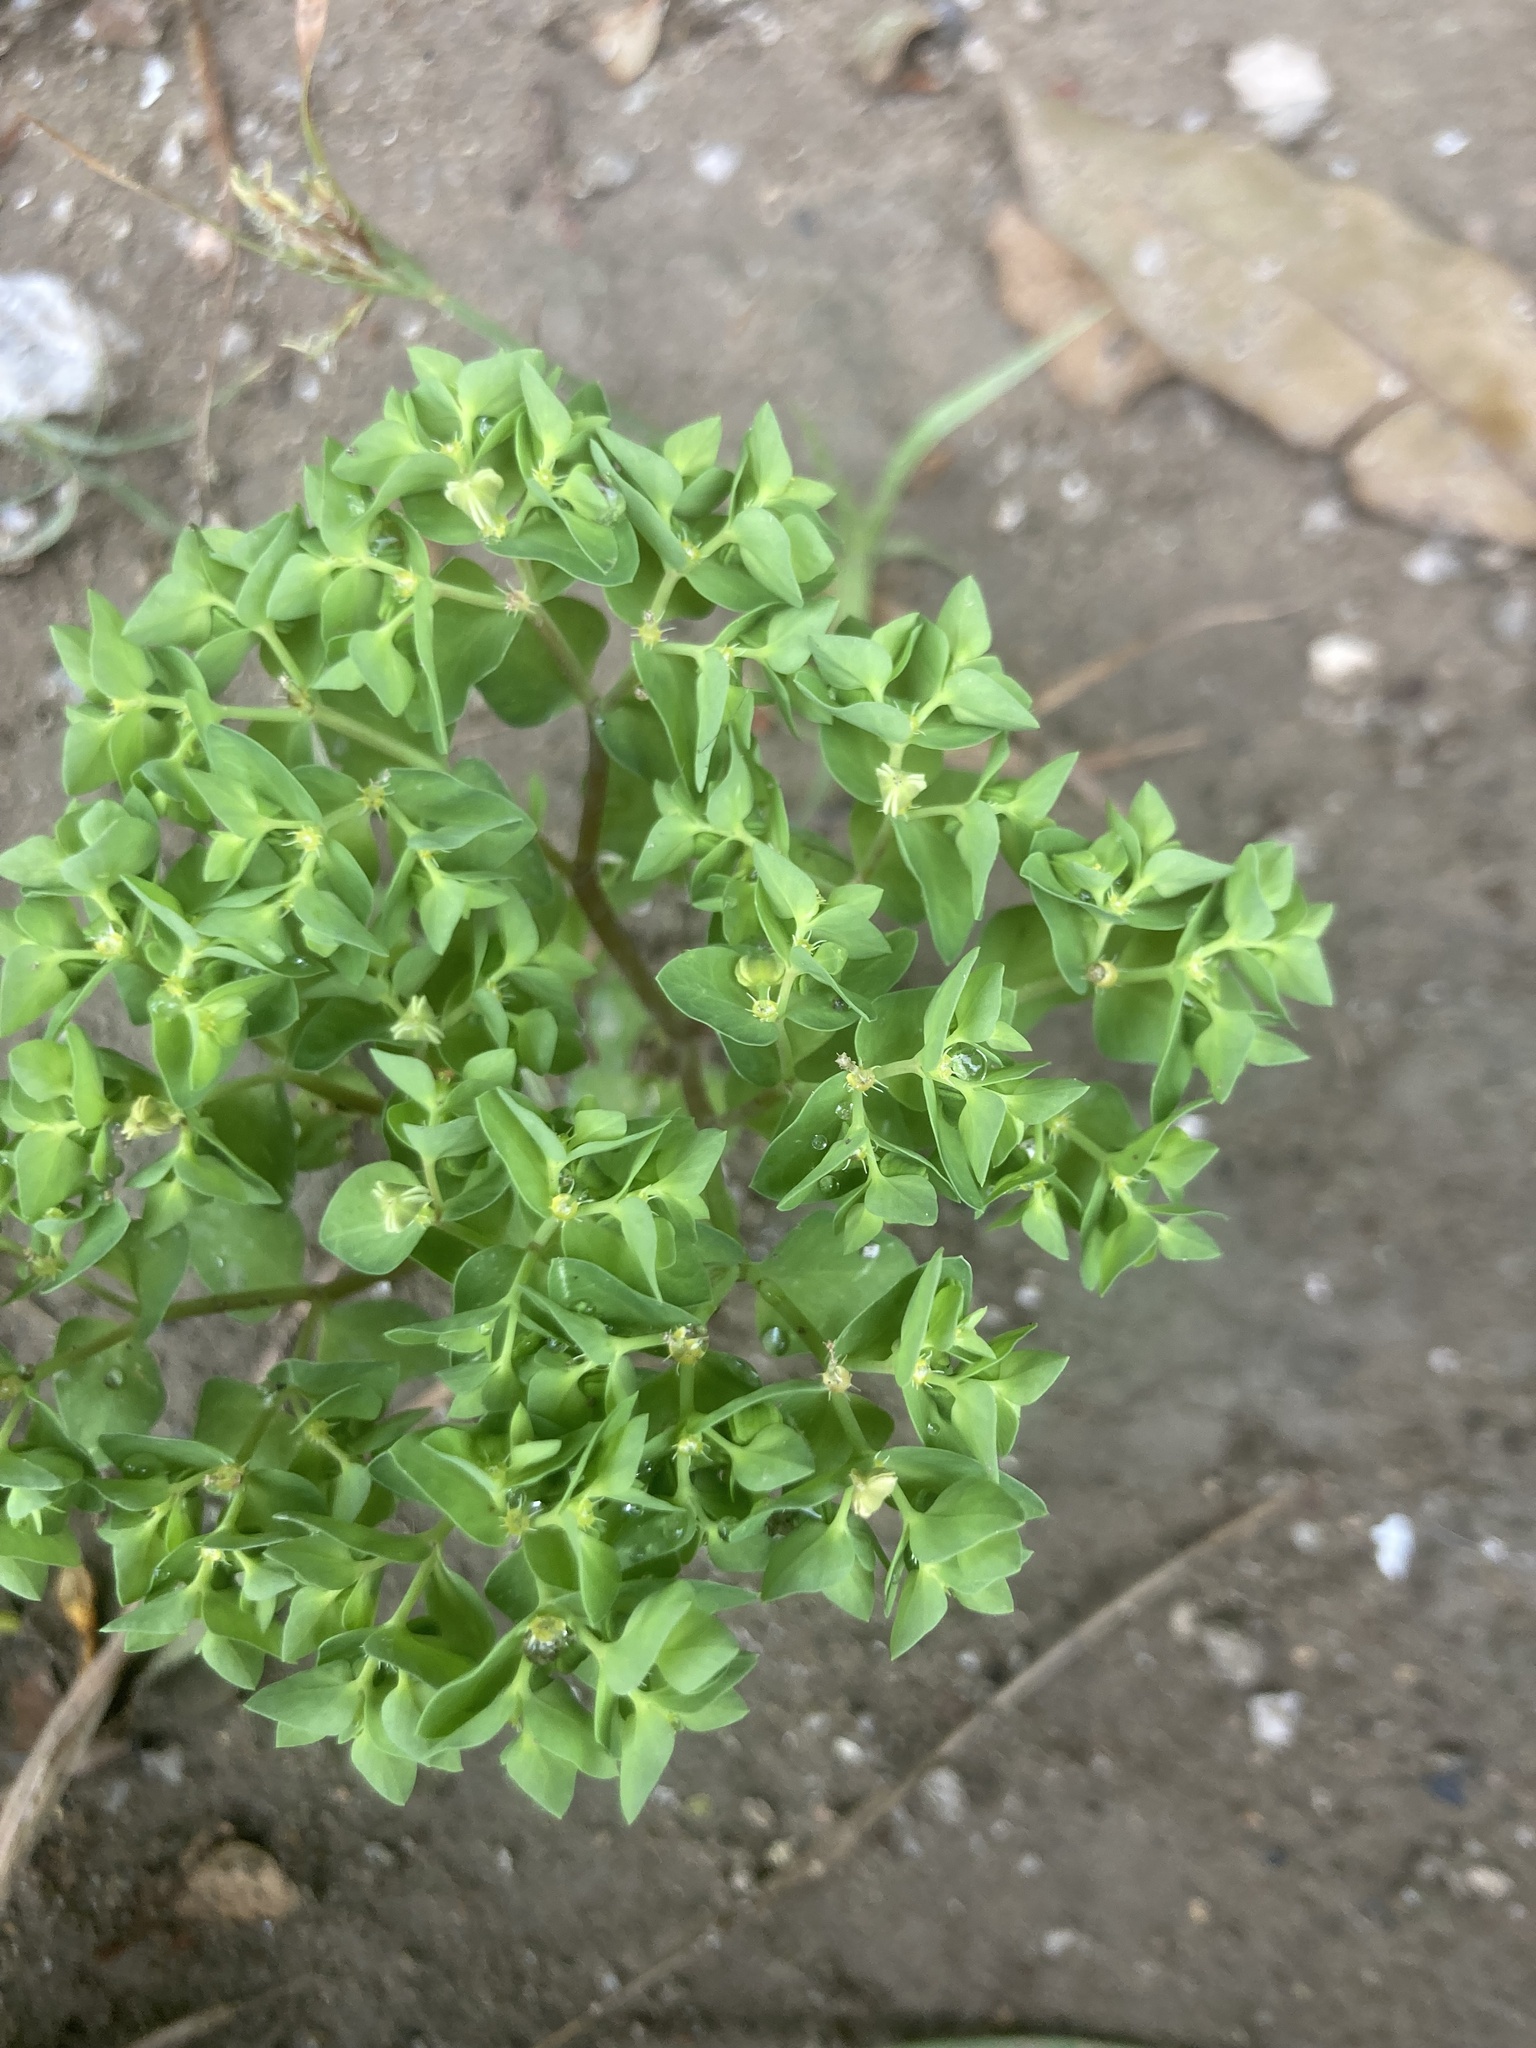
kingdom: Plantae
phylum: Tracheophyta
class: Magnoliopsida
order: Malpighiales
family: Euphorbiaceae
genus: Euphorbia
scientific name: Euphorbia peplus
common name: Petty spurge
